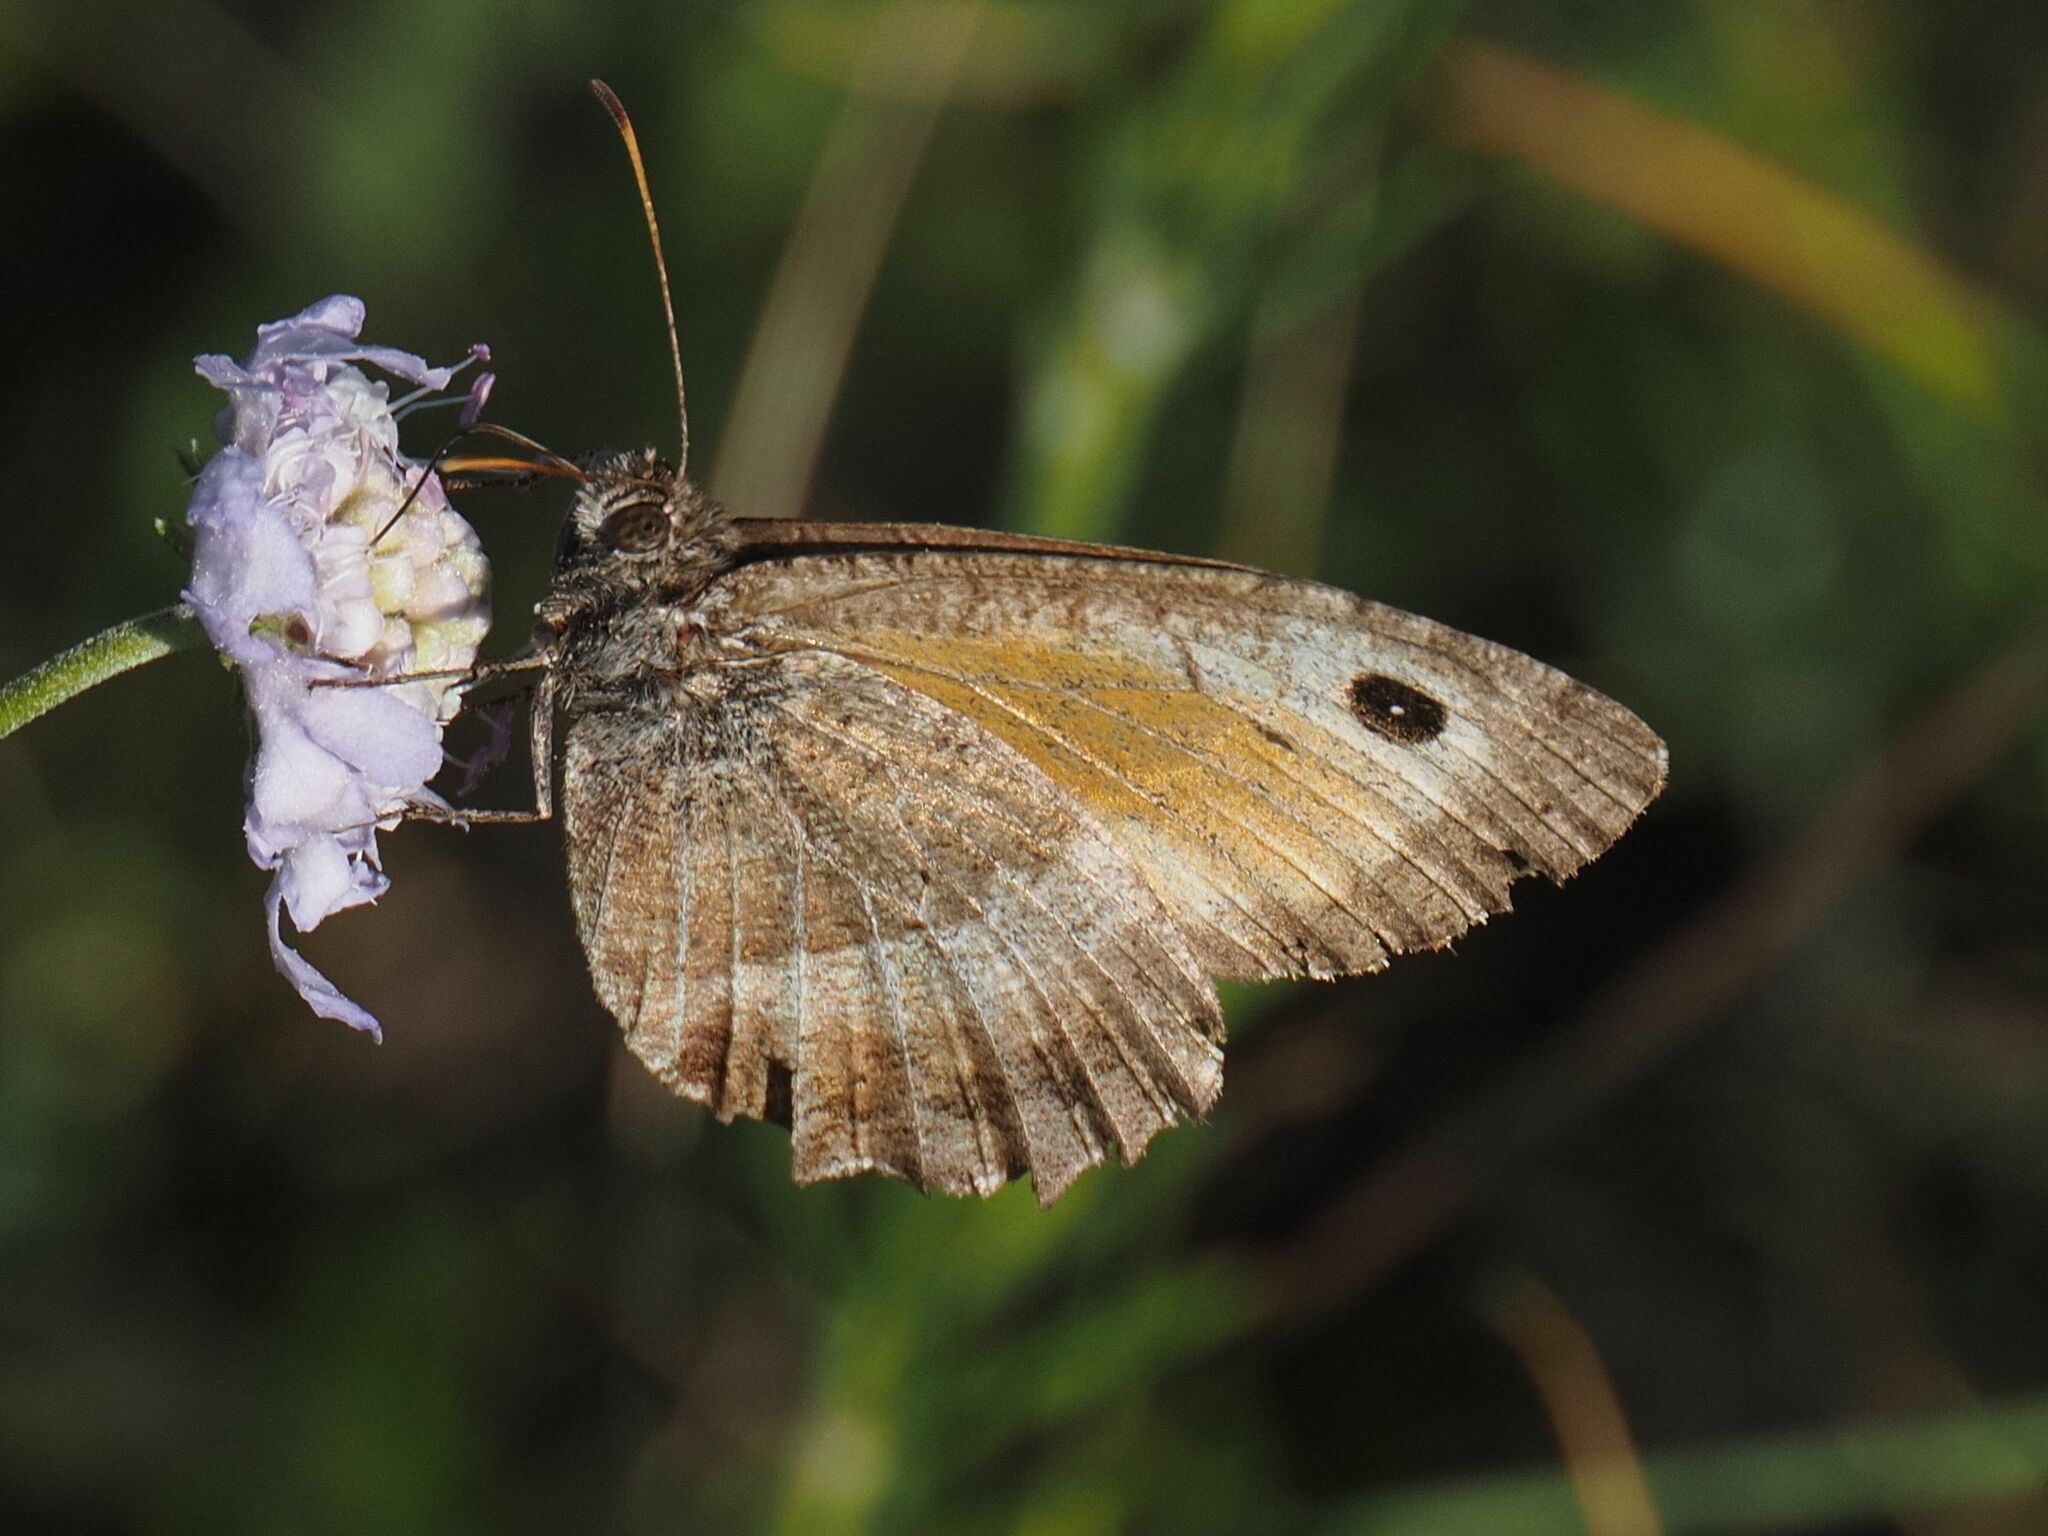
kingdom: Animalia
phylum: Arthropoda
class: Insecta
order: Lepidoptera
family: Nymphalidae
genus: Arethusana
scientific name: Arethusana arethusa
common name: False grayling
